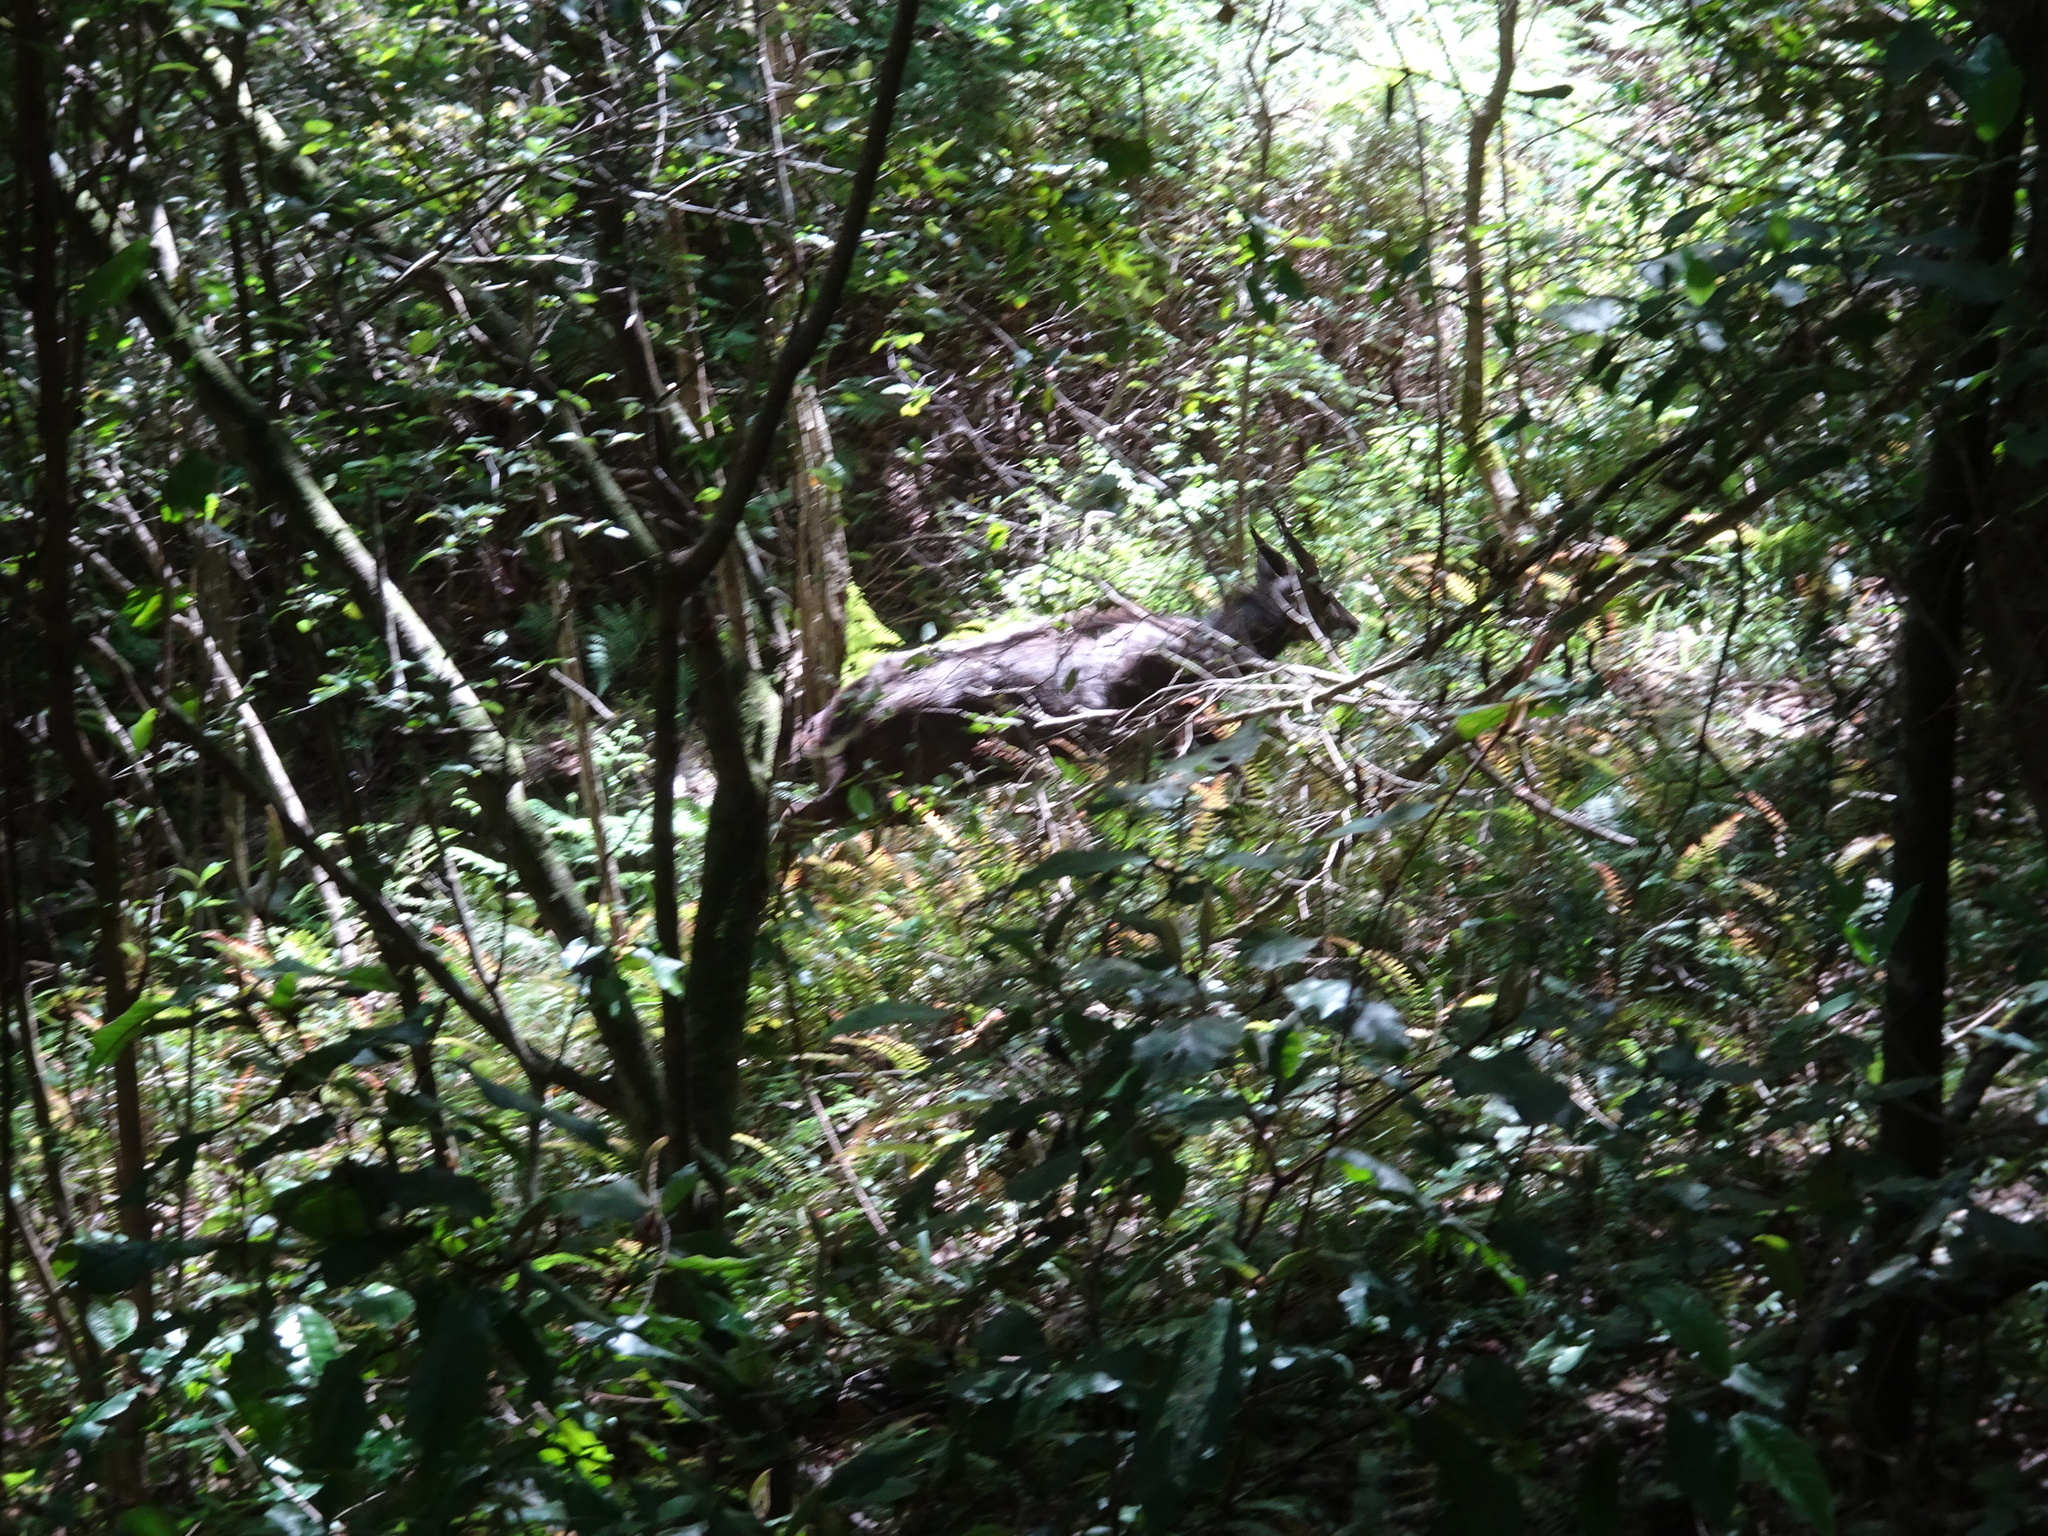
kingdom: Animalia
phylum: Chordata
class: Mammalia
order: Artiodactyla
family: Bovidae
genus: Tragelaphus
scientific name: Tragelaphus scriptus
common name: Bushbuck
